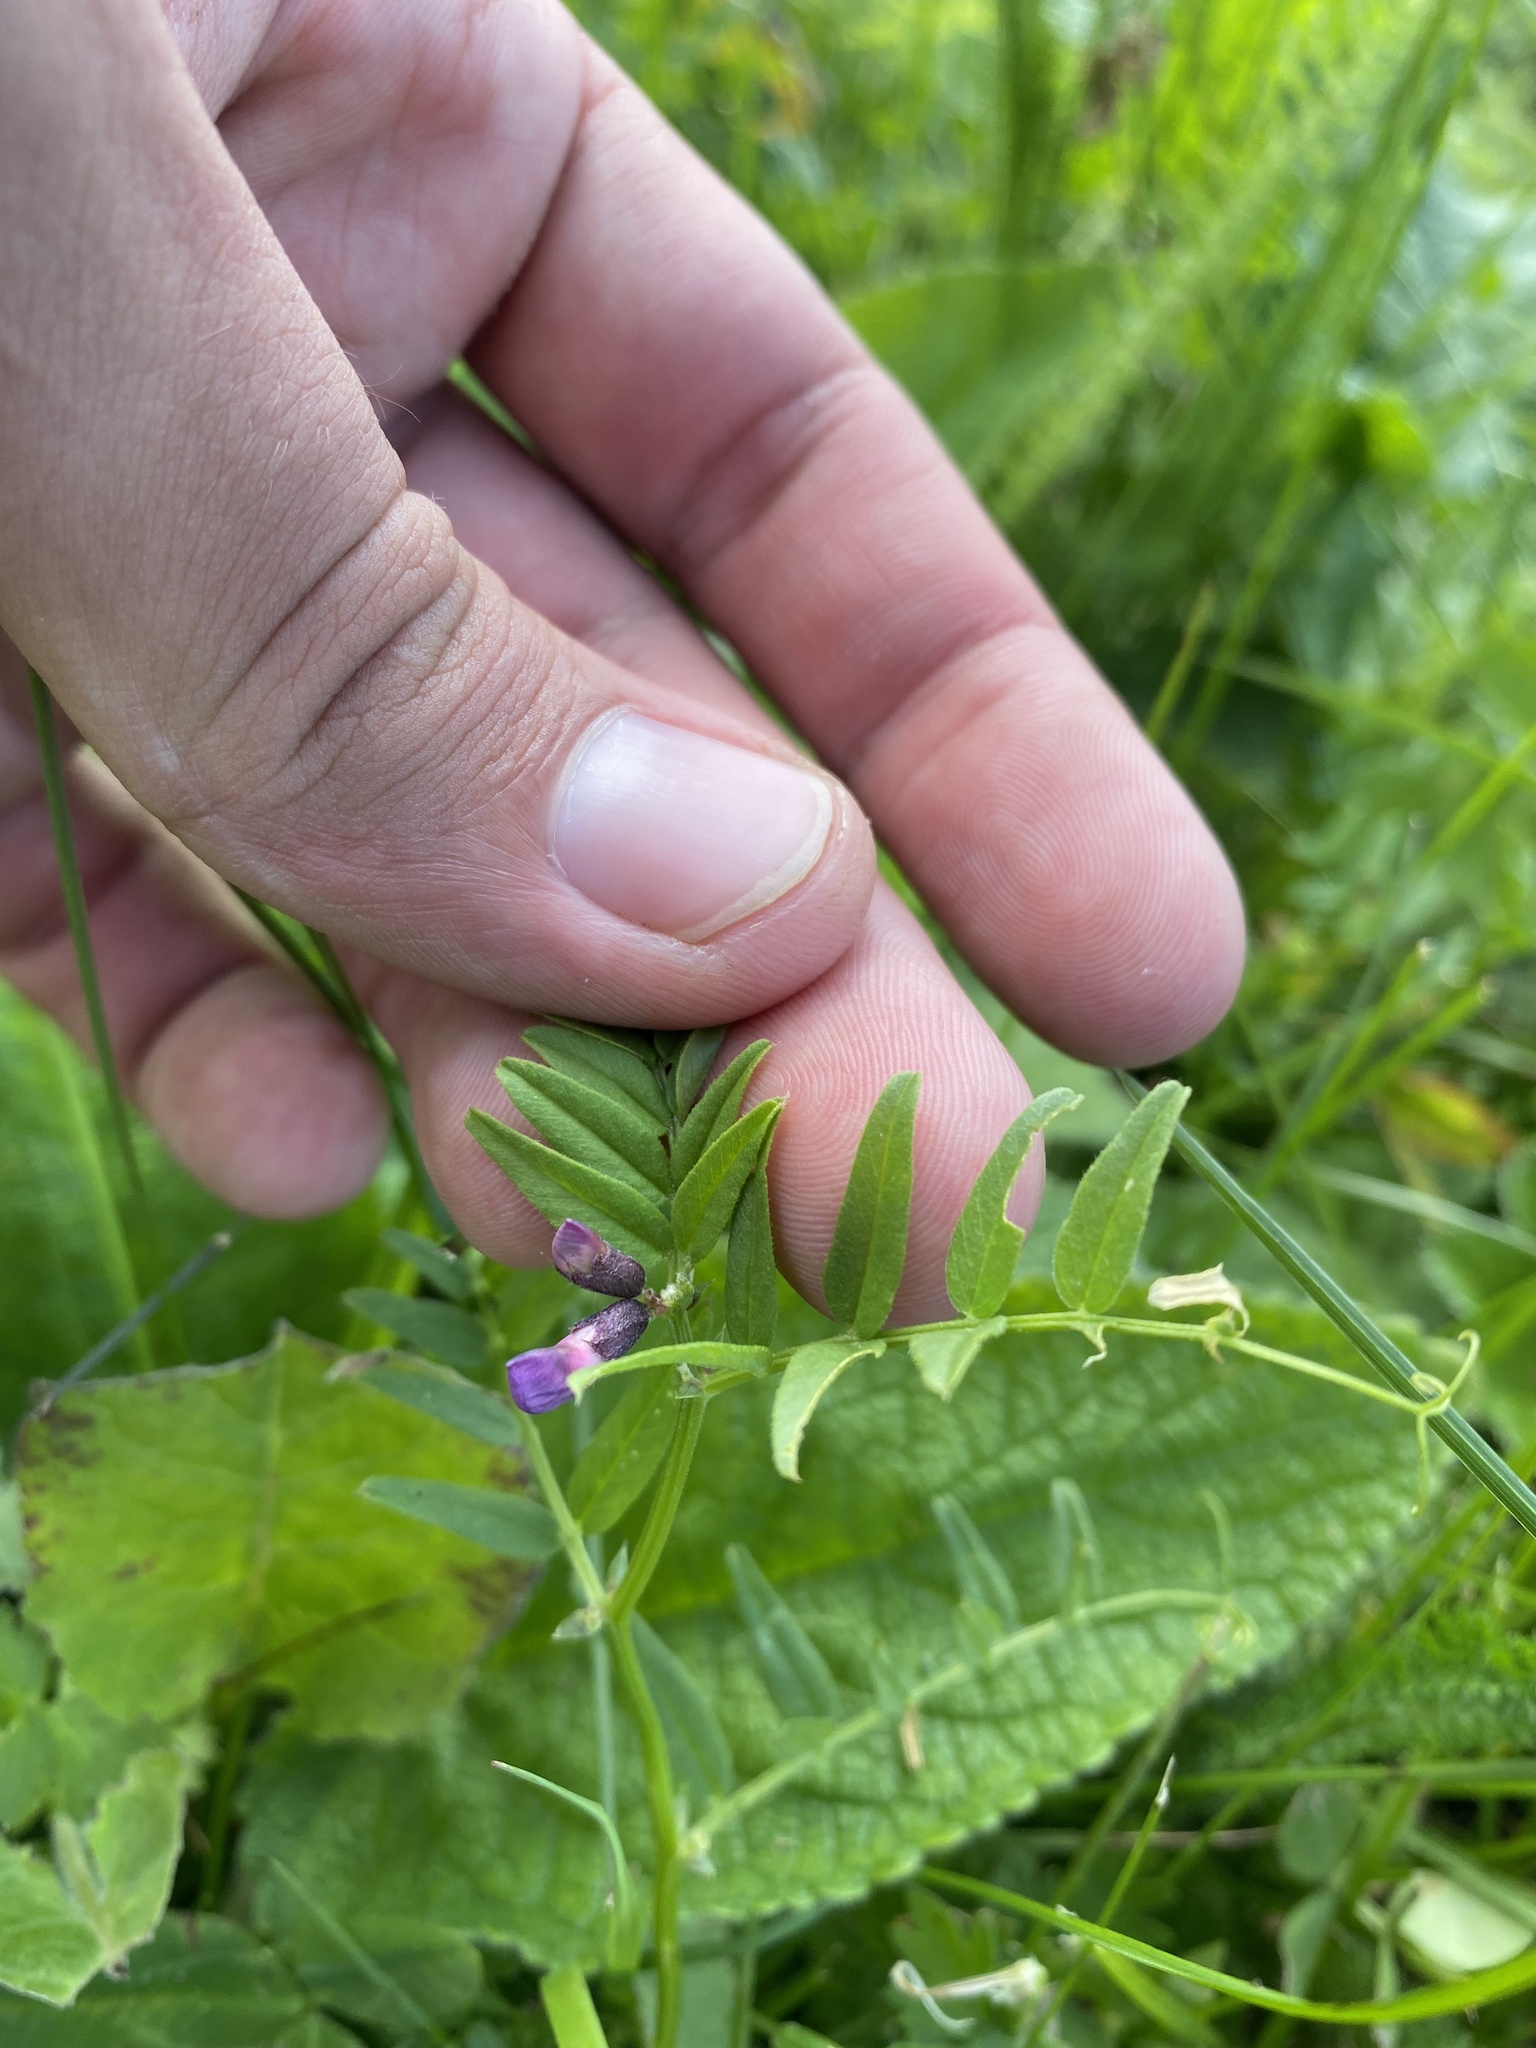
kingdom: Plantae
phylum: Tracheophyta
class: Magnoliopsida
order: Fabales
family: Fabaceae
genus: Vicia
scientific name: Vicia sepium
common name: Bush vetch
